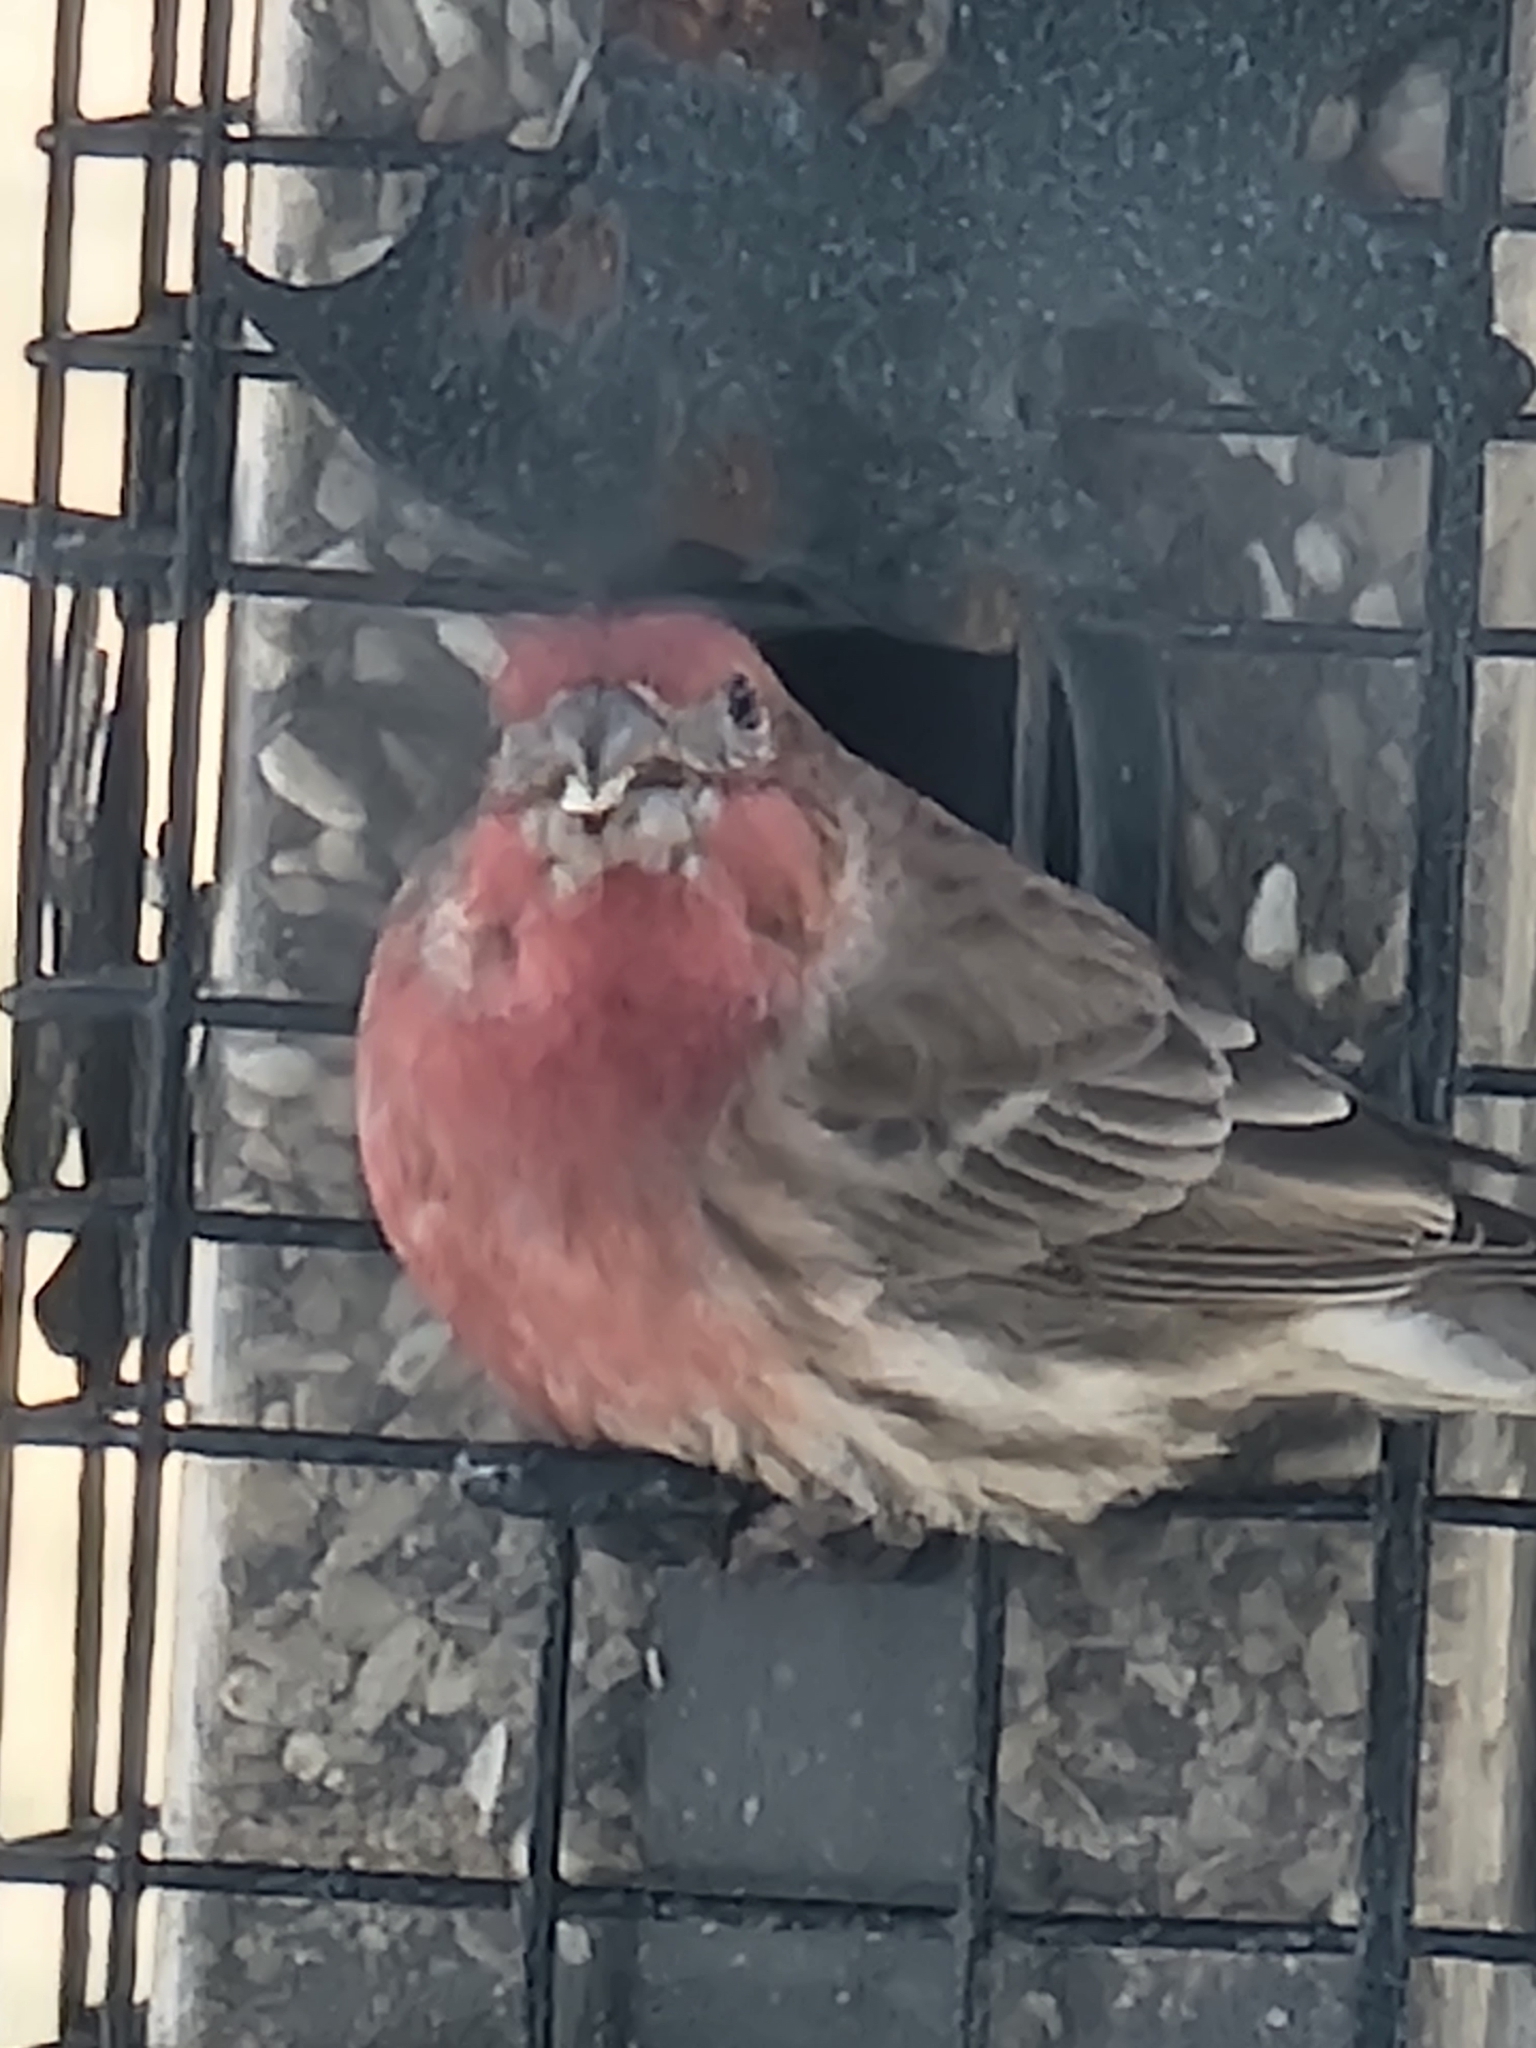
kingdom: Animalia
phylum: Chordata
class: Aves
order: Passeriformes
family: Fringillidae
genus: Haemorhous
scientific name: Haemorhous mexicanus
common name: House finch
